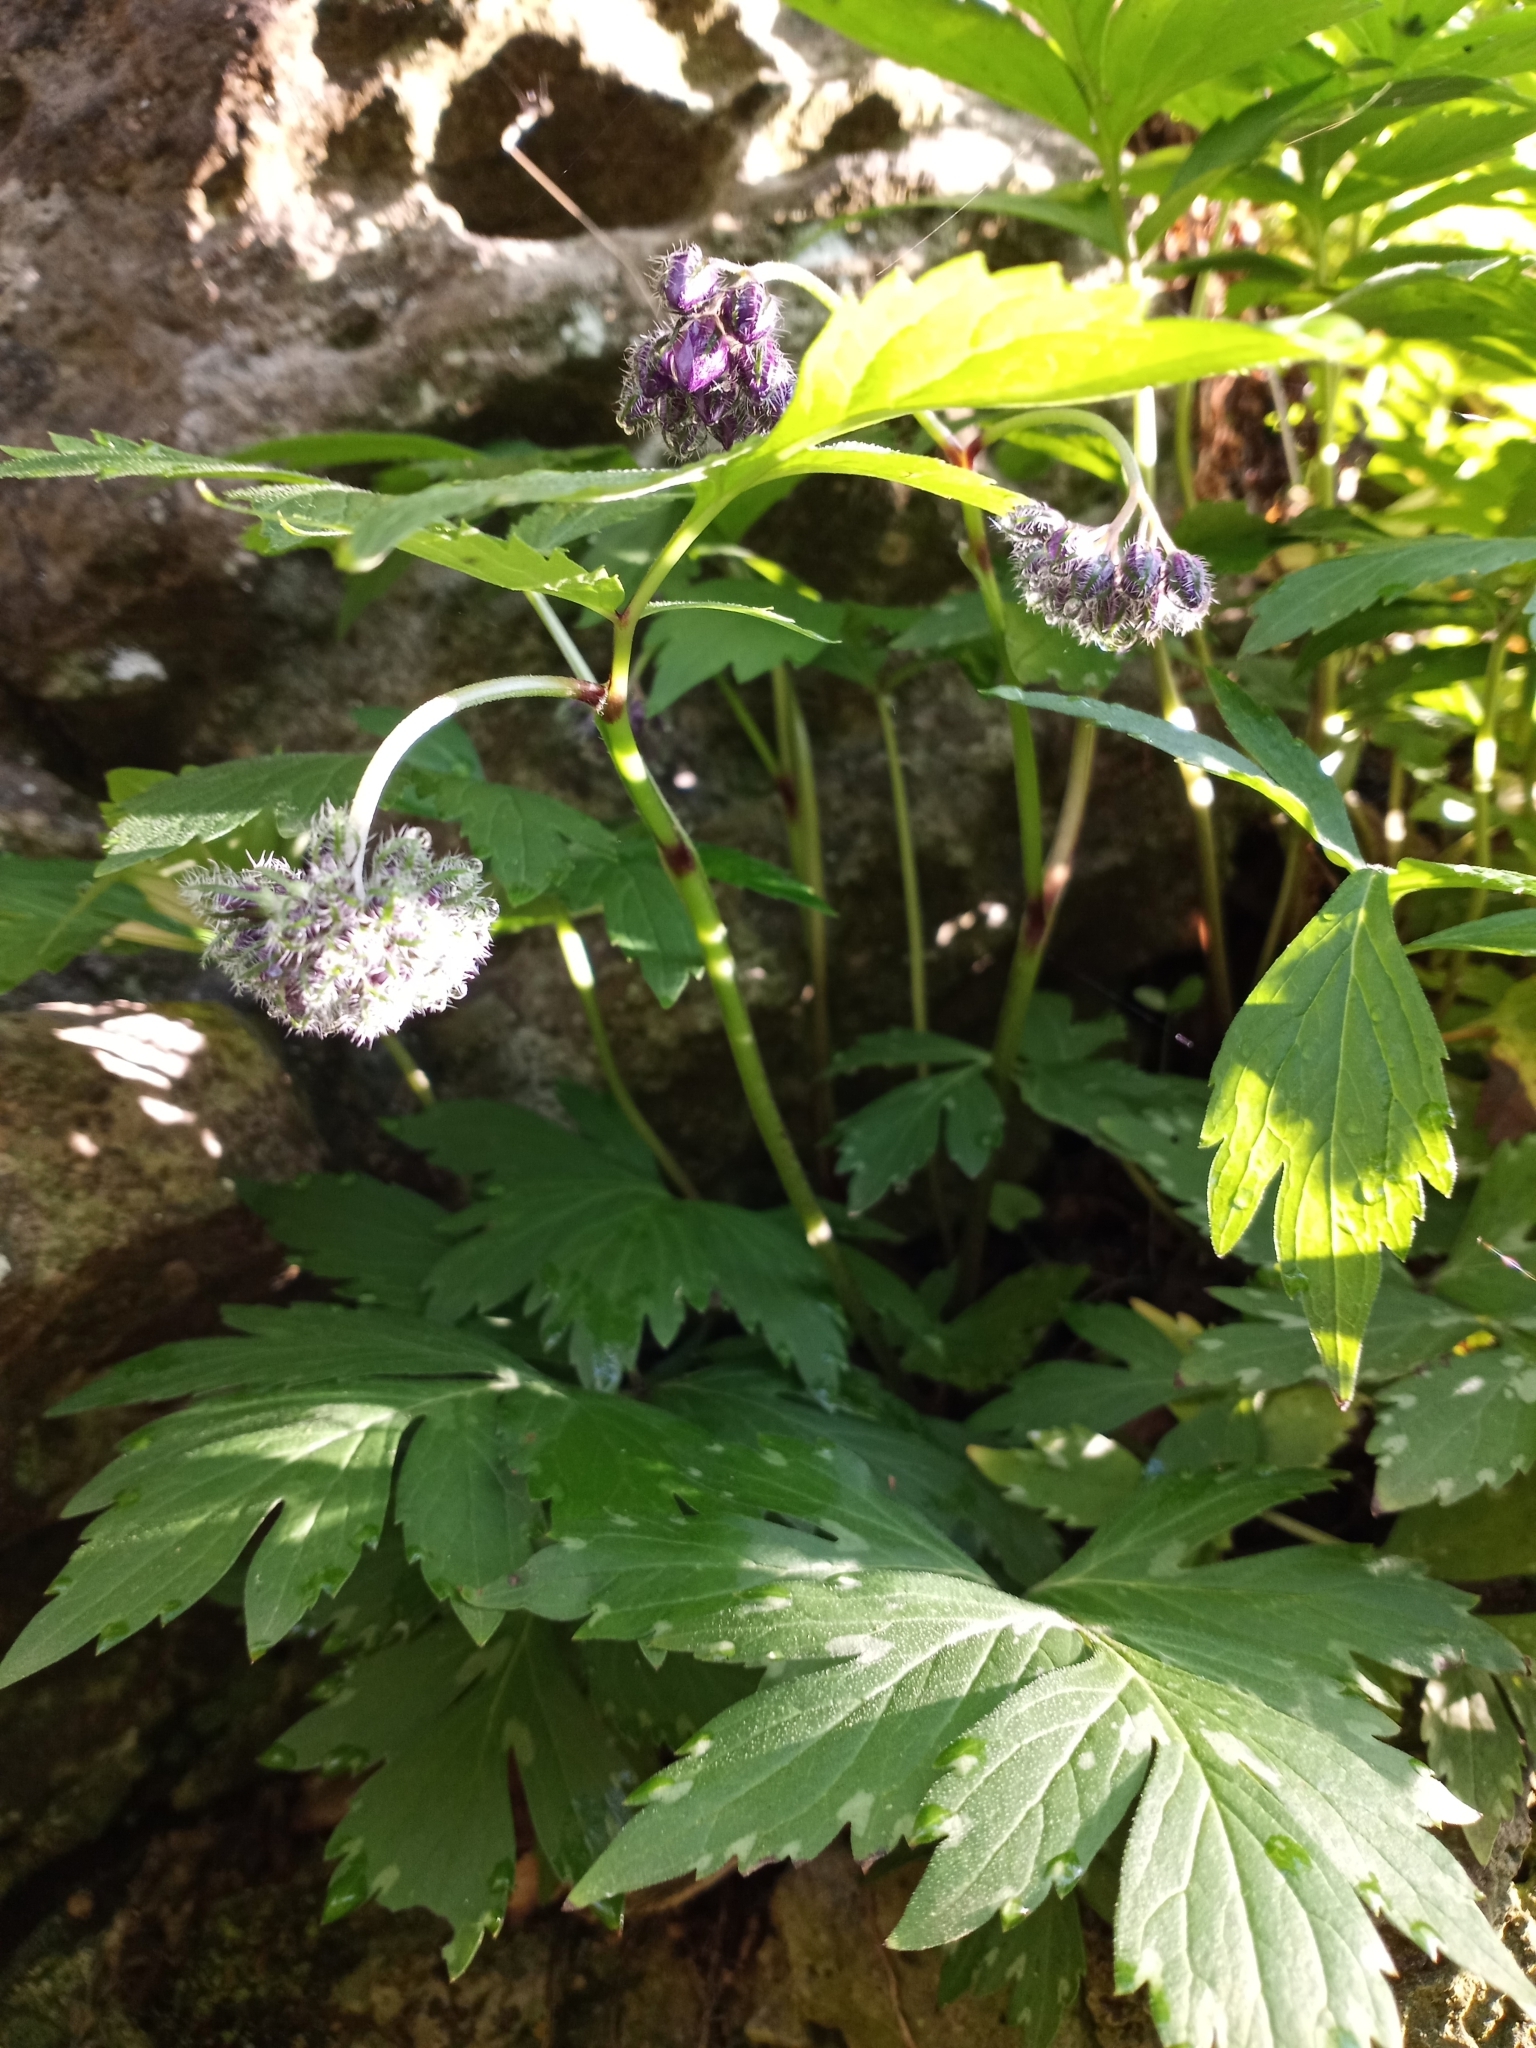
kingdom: Plantae
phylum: Tracheophyta
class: Magnoliopsida
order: Boraginales
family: Hydrophyllaceae
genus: Hydrophyllum
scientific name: Hydrophyllum virginianum
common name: Virginia waterleaf
